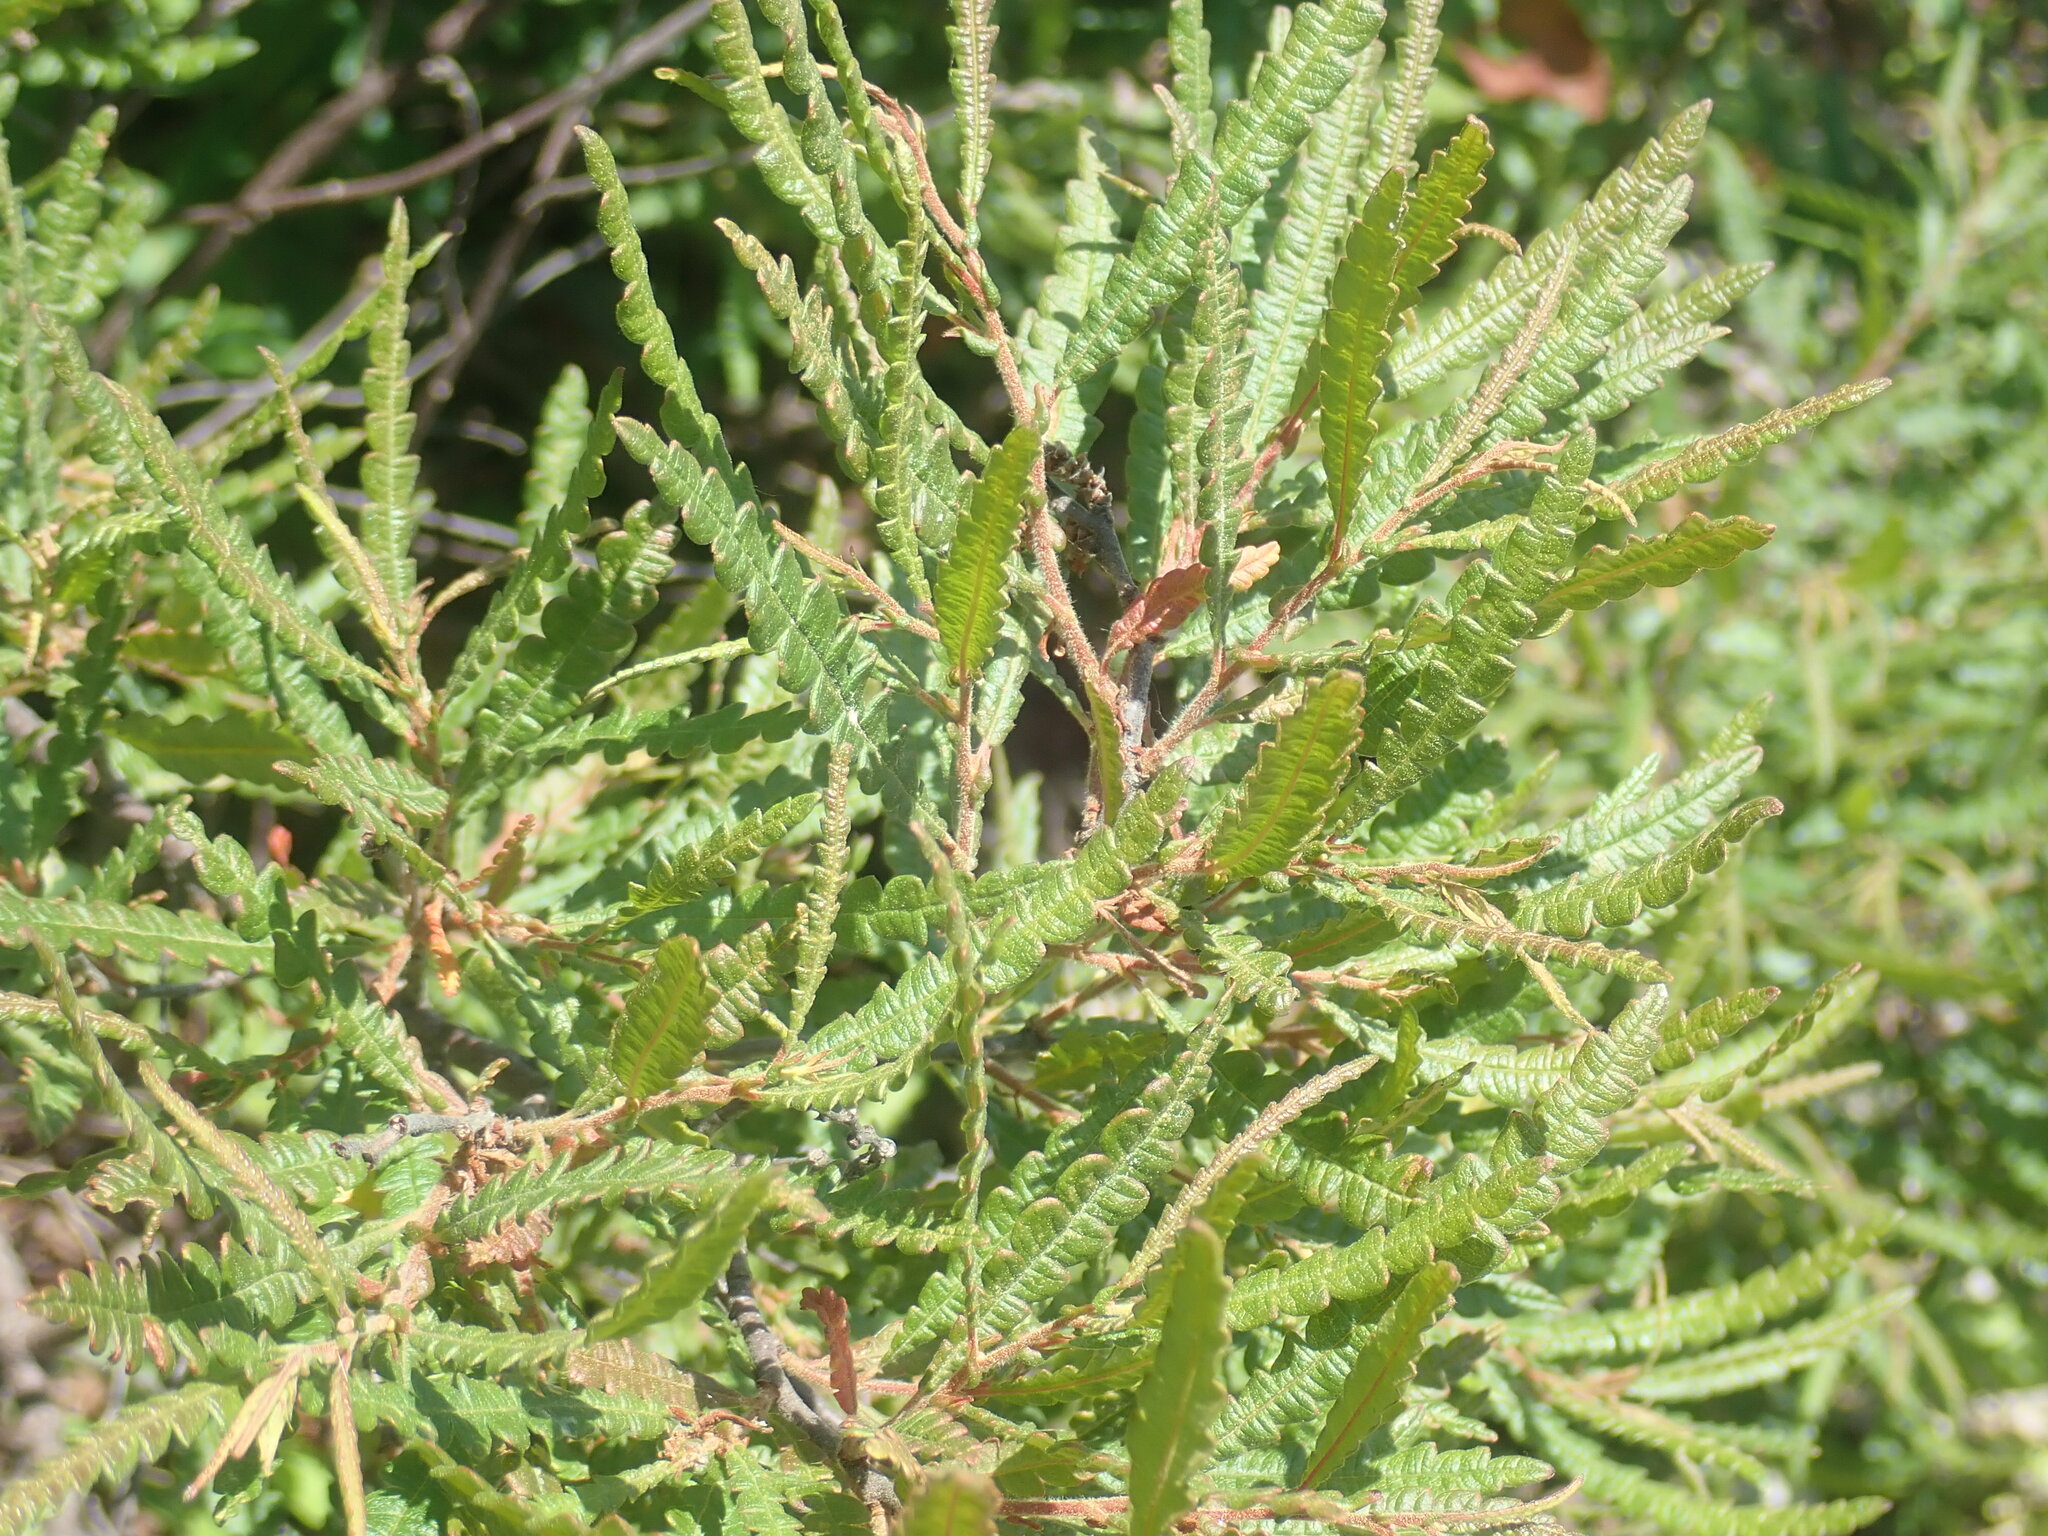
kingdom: Plantae
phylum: Tracheophyta
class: Magnoliopsida
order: Fagales
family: Myricaceae
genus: Comptonia
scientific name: Comptonia peregrina
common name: Sweet-fern
